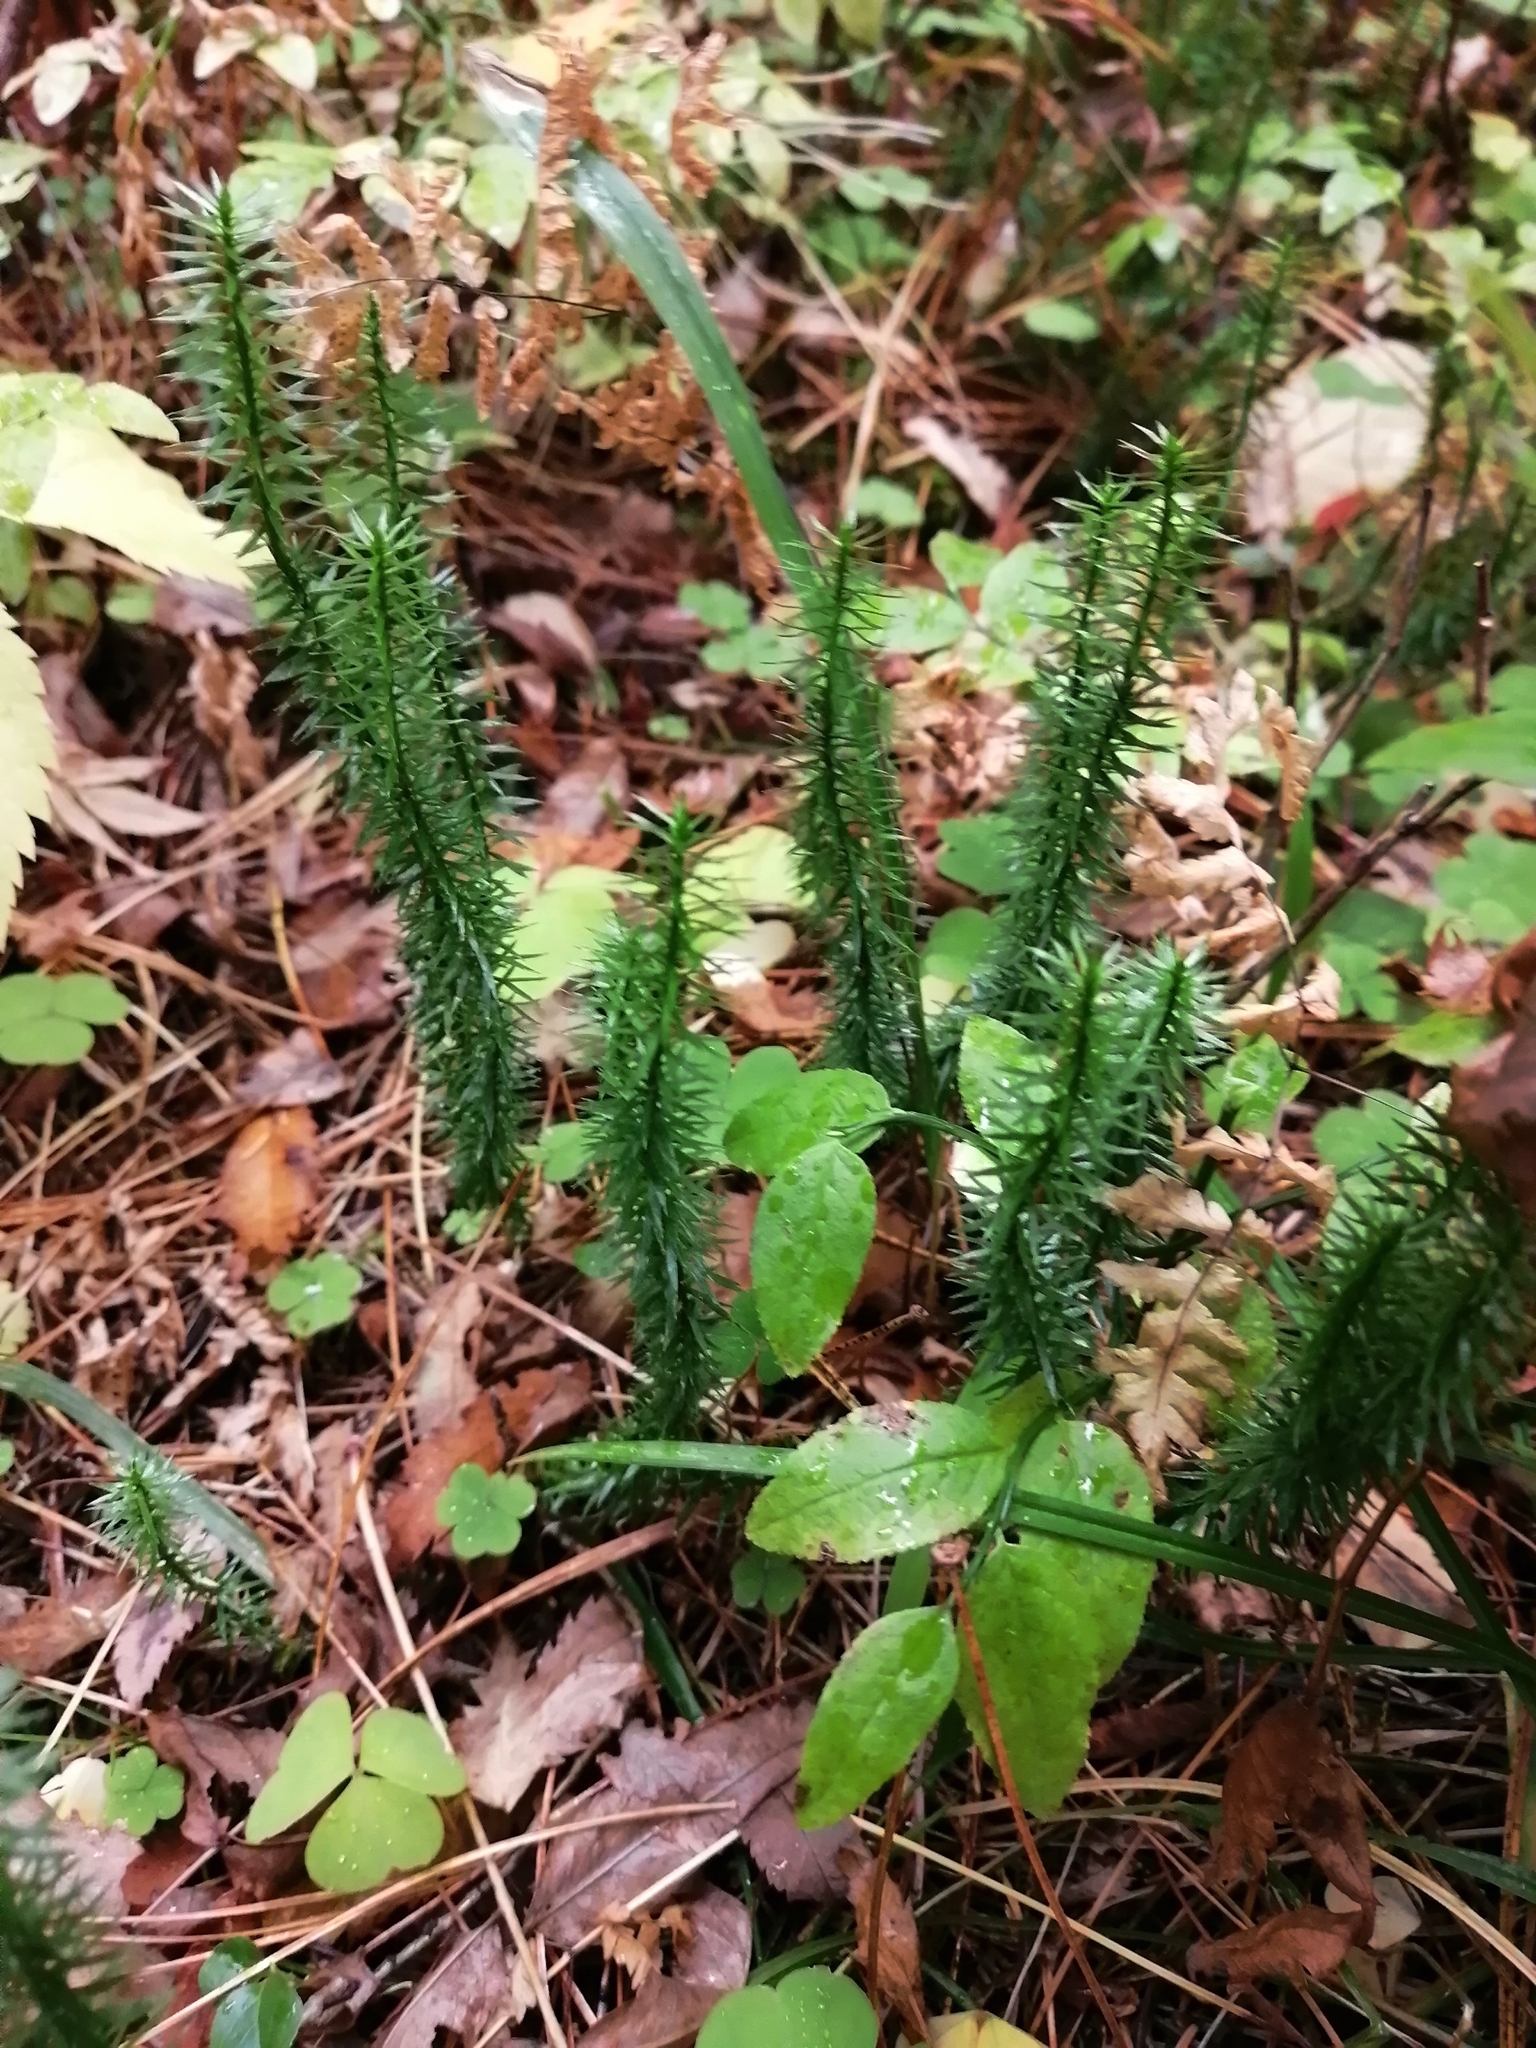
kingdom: Plantae
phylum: Tracheophyta
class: Lycopodiopsida
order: Lycopodiales
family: Lycopodiaceae
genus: Spinulum
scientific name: Spinulum annotinum
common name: Interrupted club-moss
